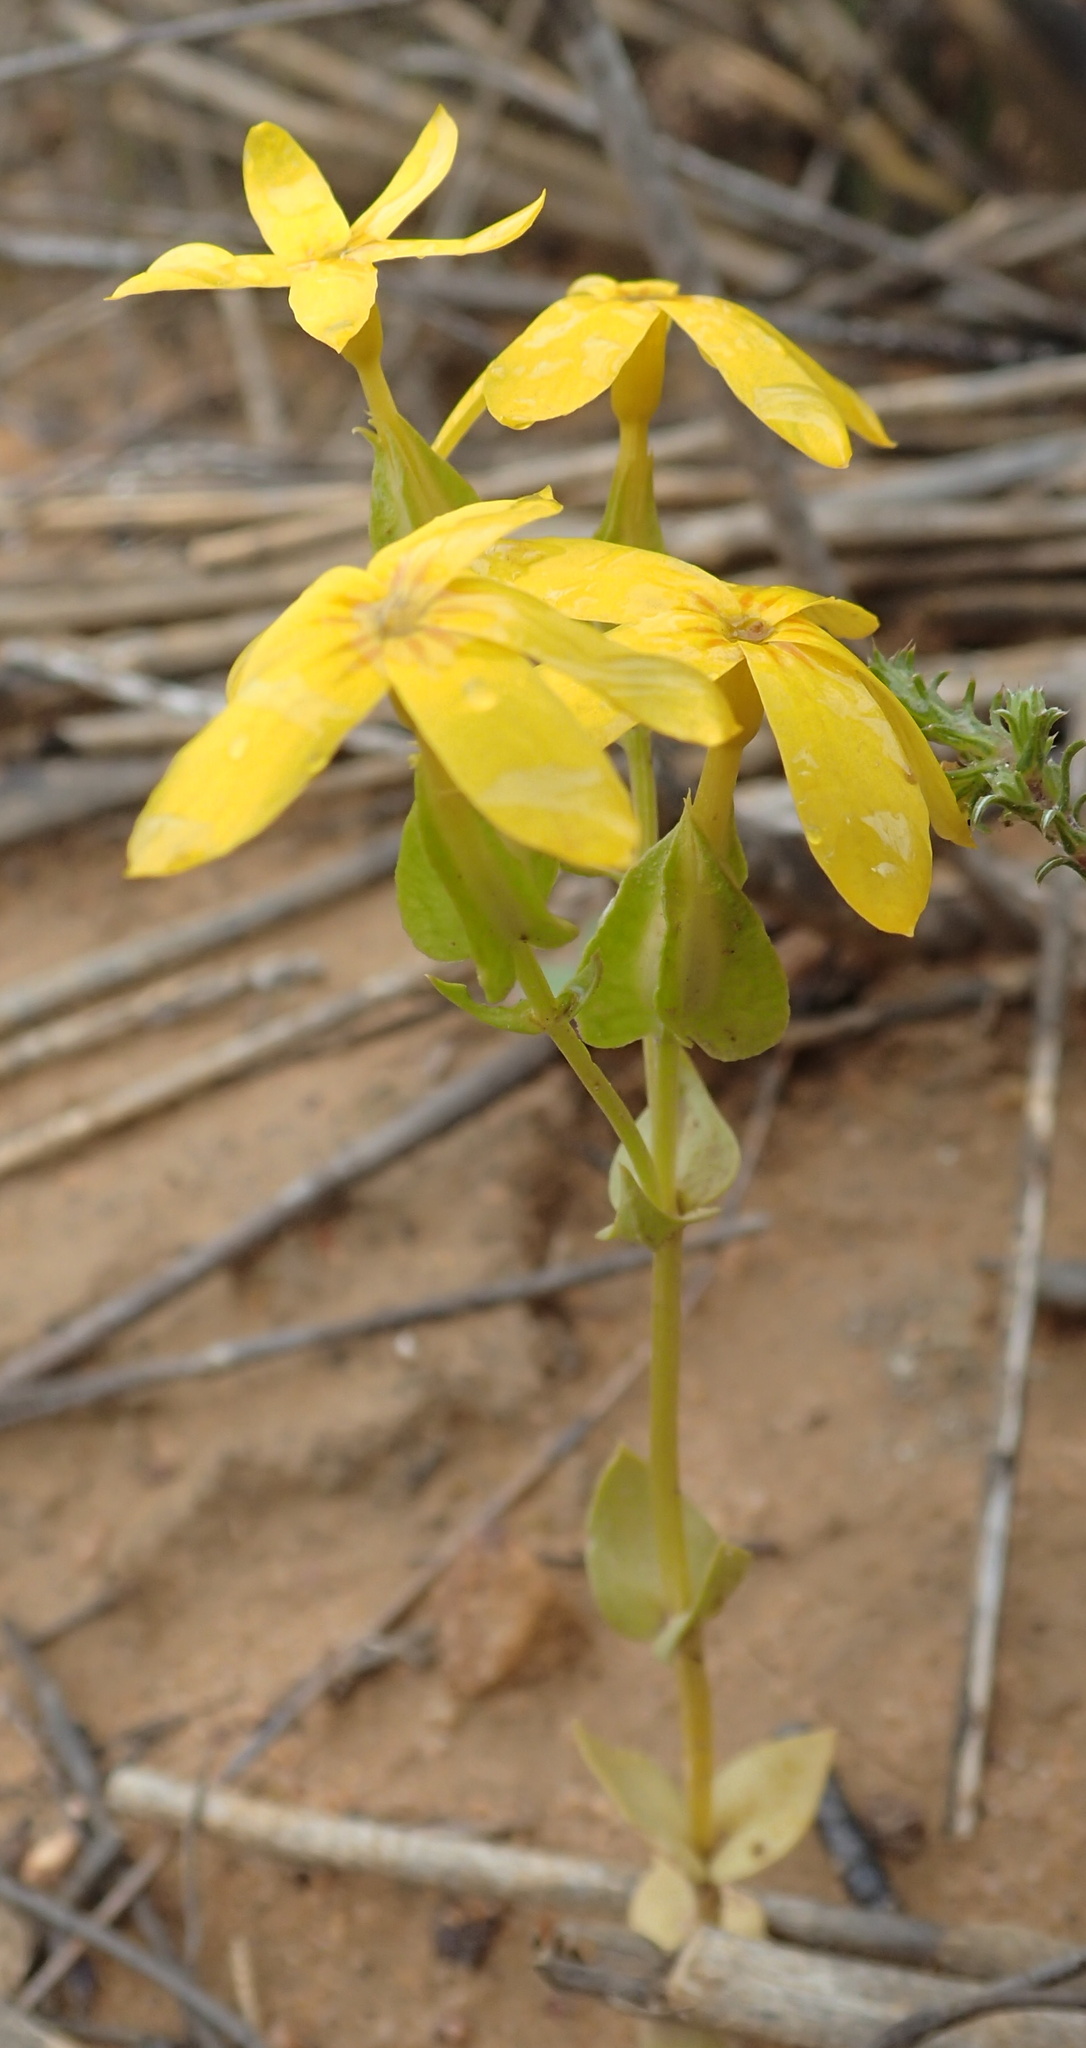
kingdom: Plantae
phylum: Tracheophyta
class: Magnoliopsida
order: Gentianales
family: Gentianaceae
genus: Sebaea
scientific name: Sebaea exacoides
